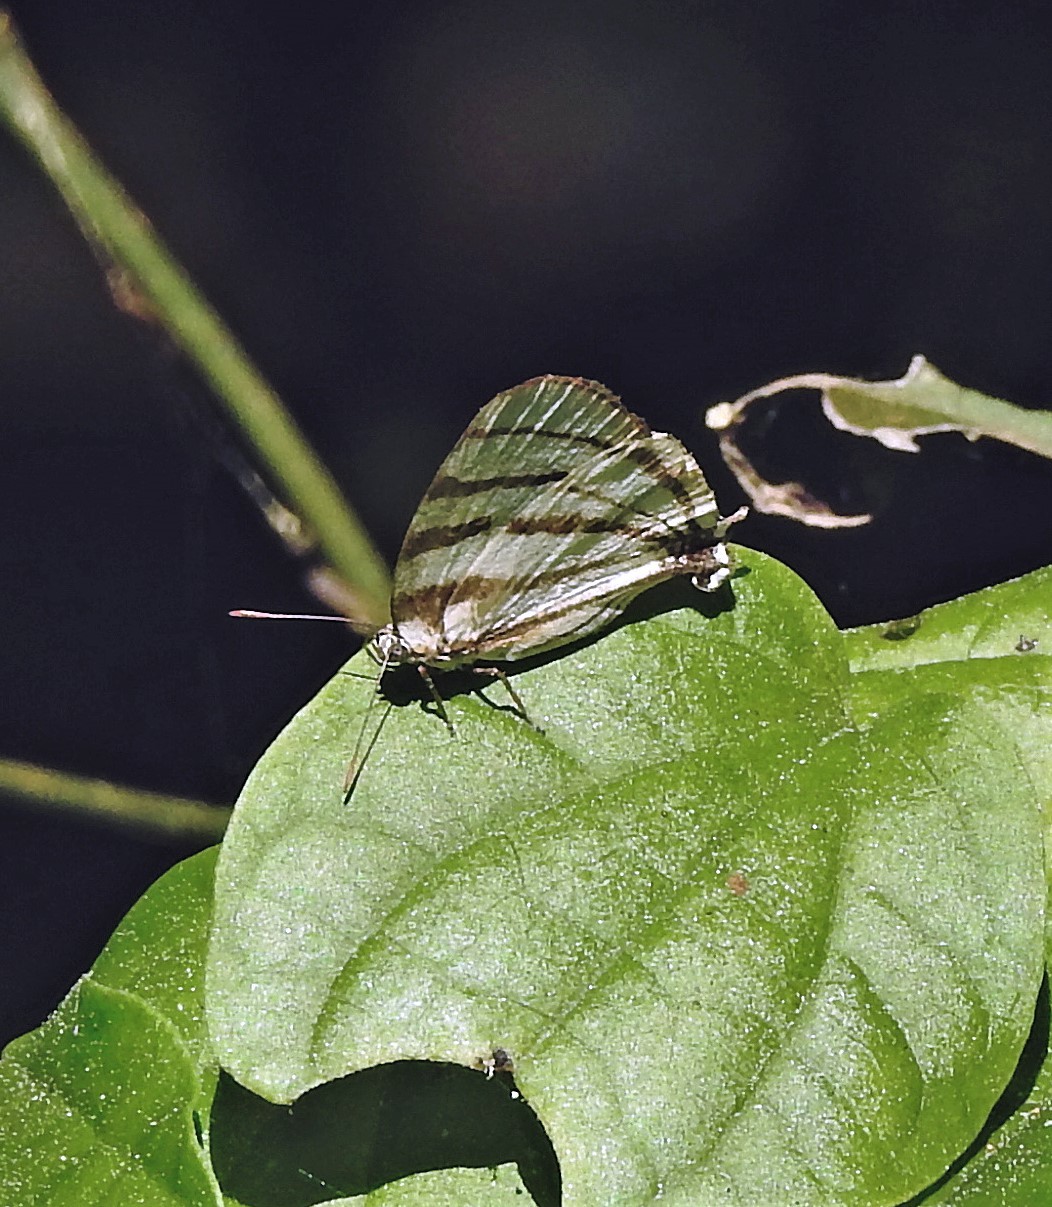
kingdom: Animalia
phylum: Arthropoda
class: Insecta
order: Lepidoptera
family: Lycaenidae
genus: Arawacus
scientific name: Arawacus separata
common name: Separated stripestreak
